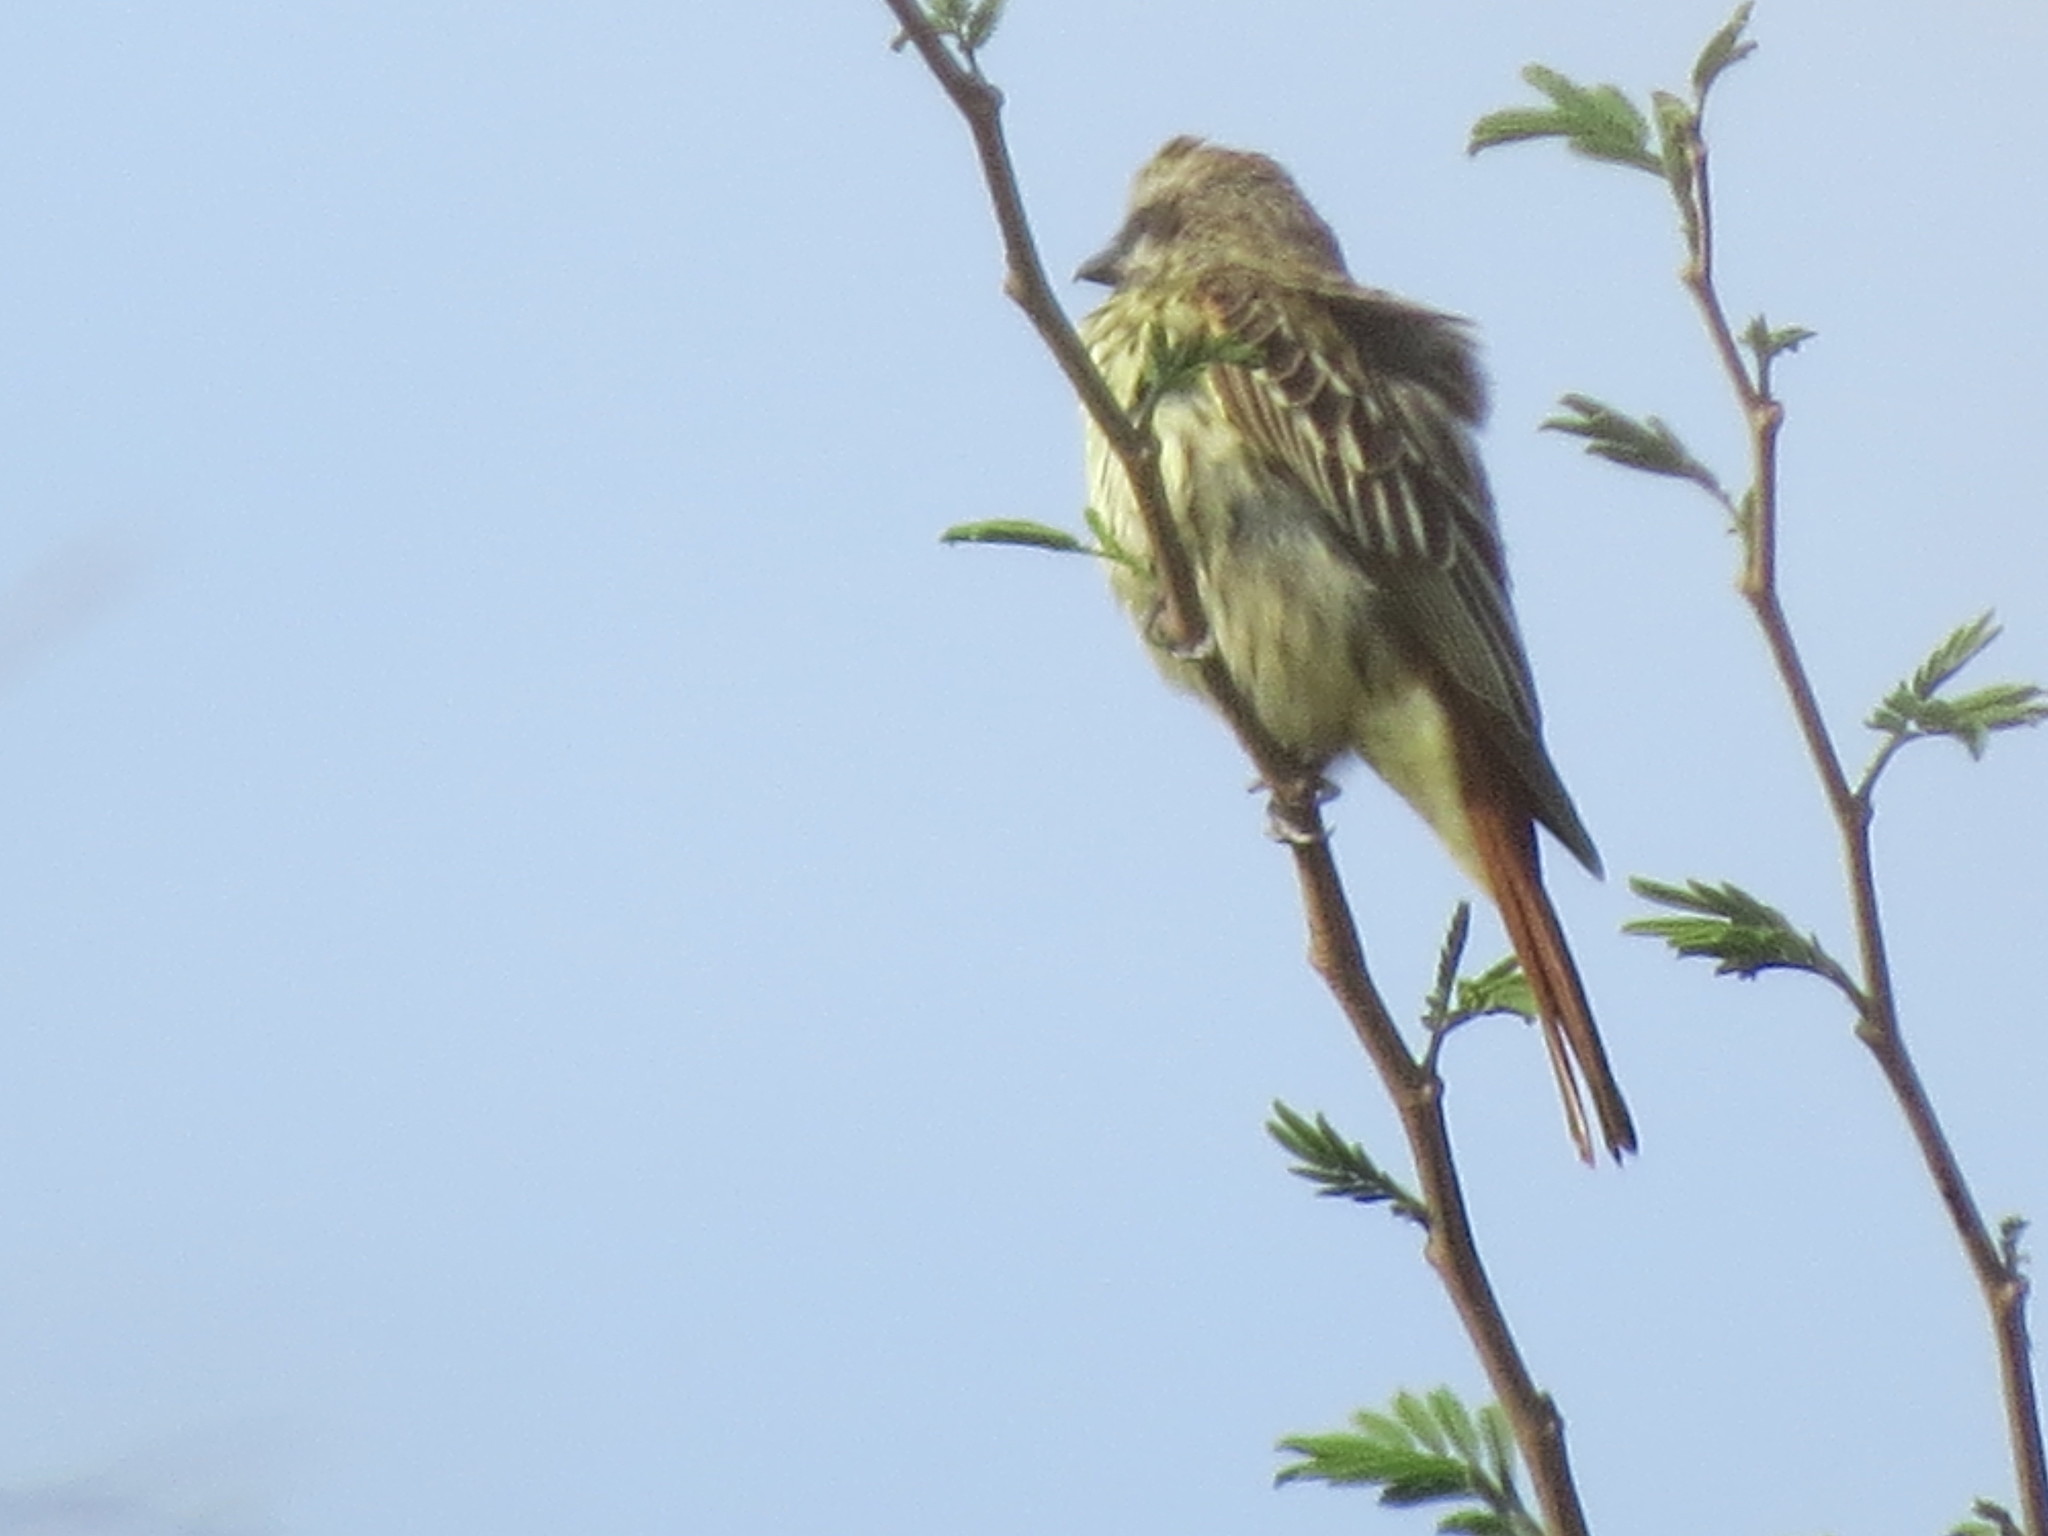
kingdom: Animalia
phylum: Chordata
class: Aves
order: Passeriformes
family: Tyrannidae
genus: Myiodynastes
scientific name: Myiodynastes luteiventris
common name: Sulphur-bellied flycatcher
